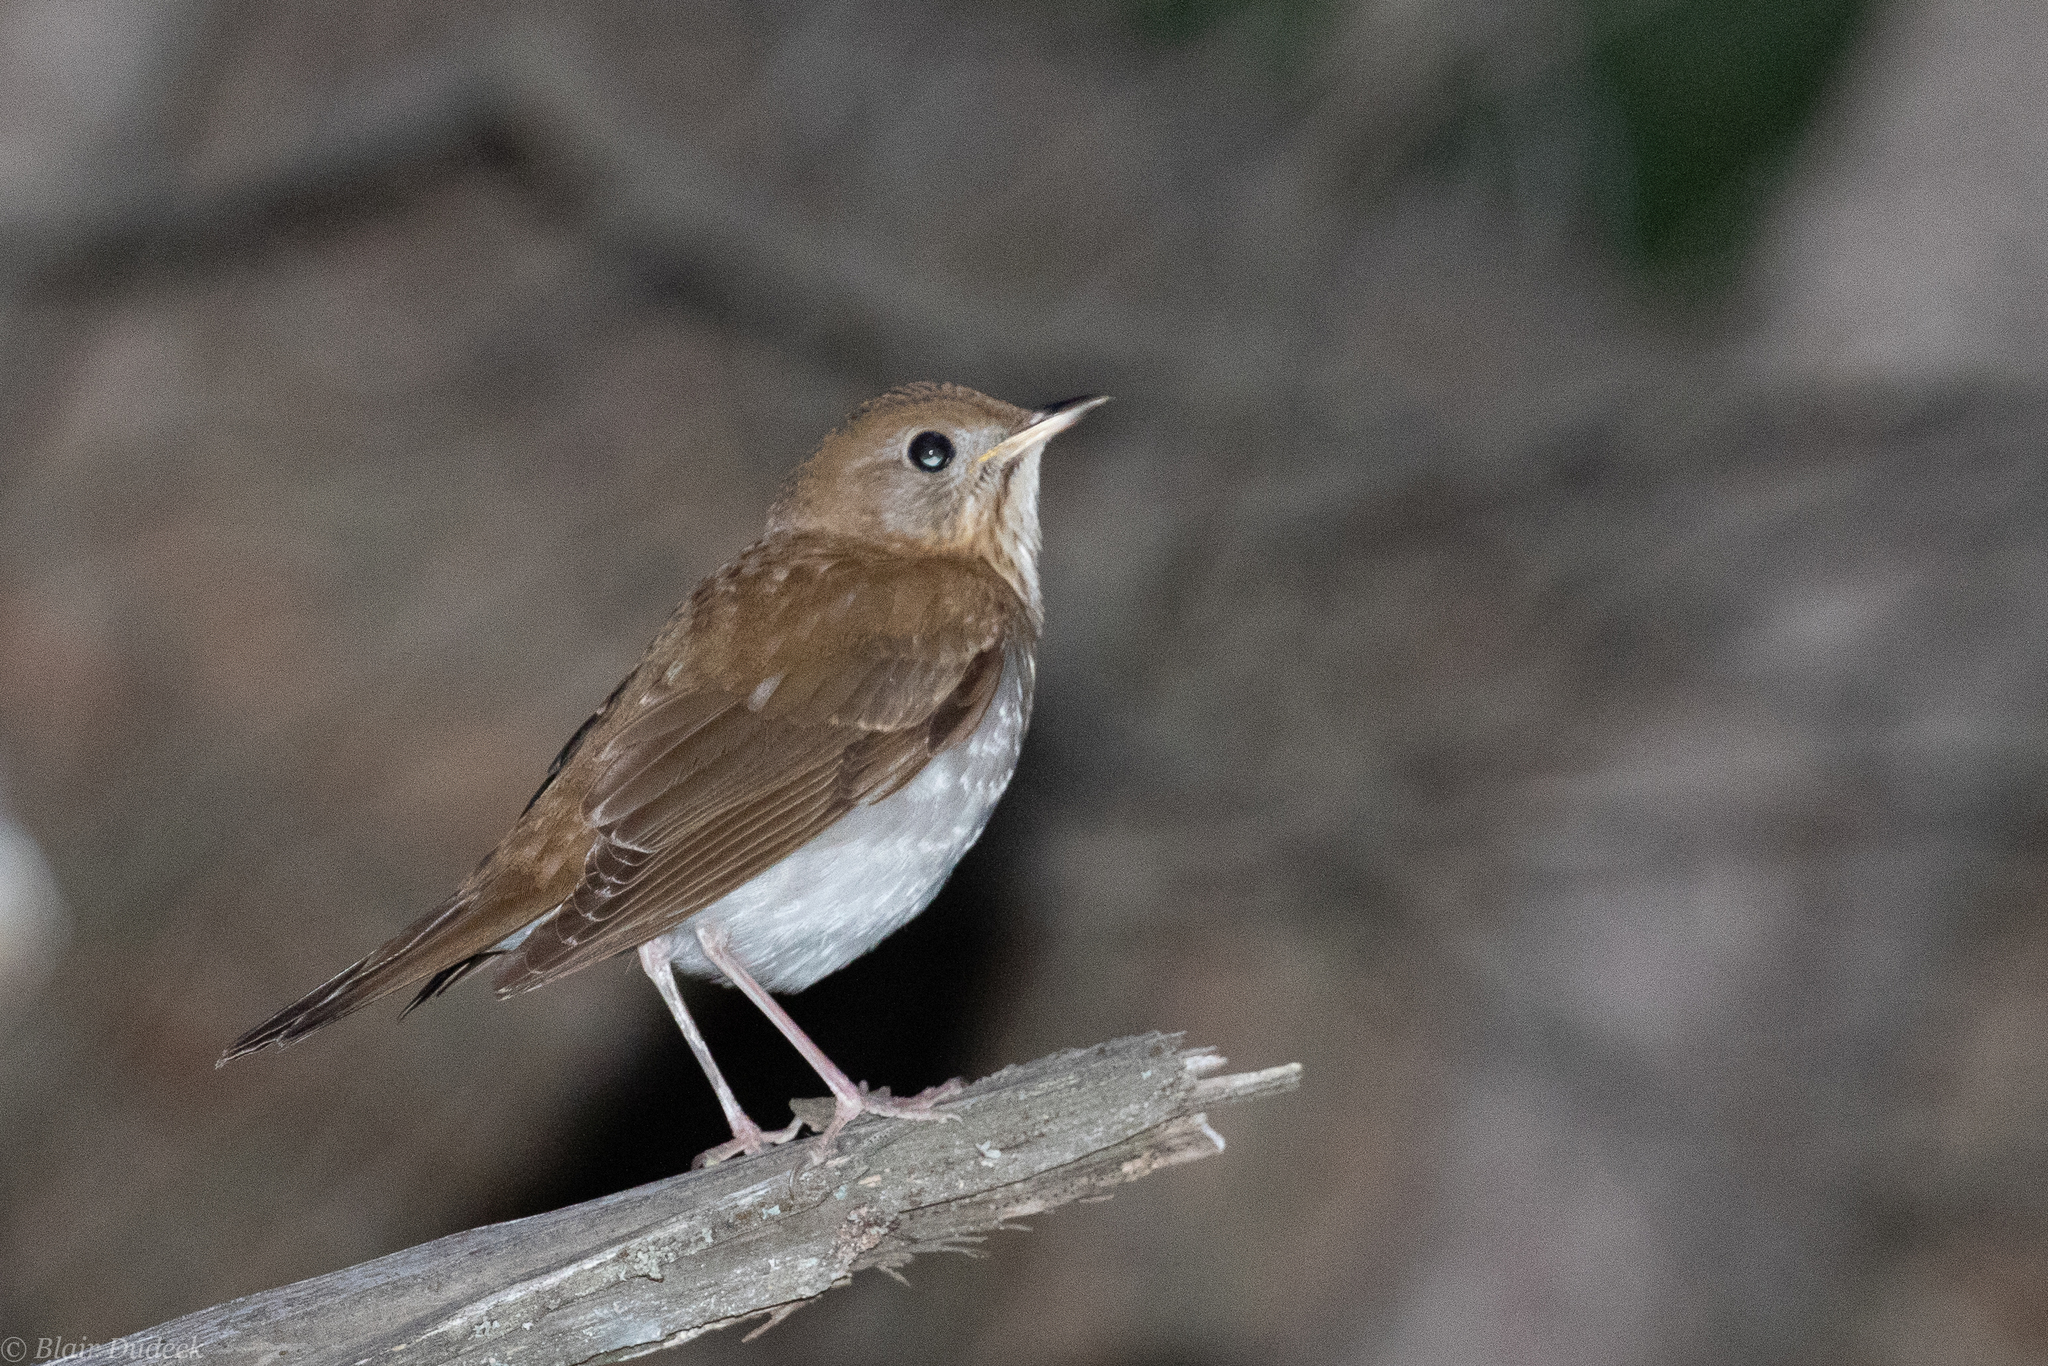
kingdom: Animalia
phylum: Chordata
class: Aves
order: Passeriformes
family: Turdidae
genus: Catharus
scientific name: Catharus fuscescens
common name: Veery
